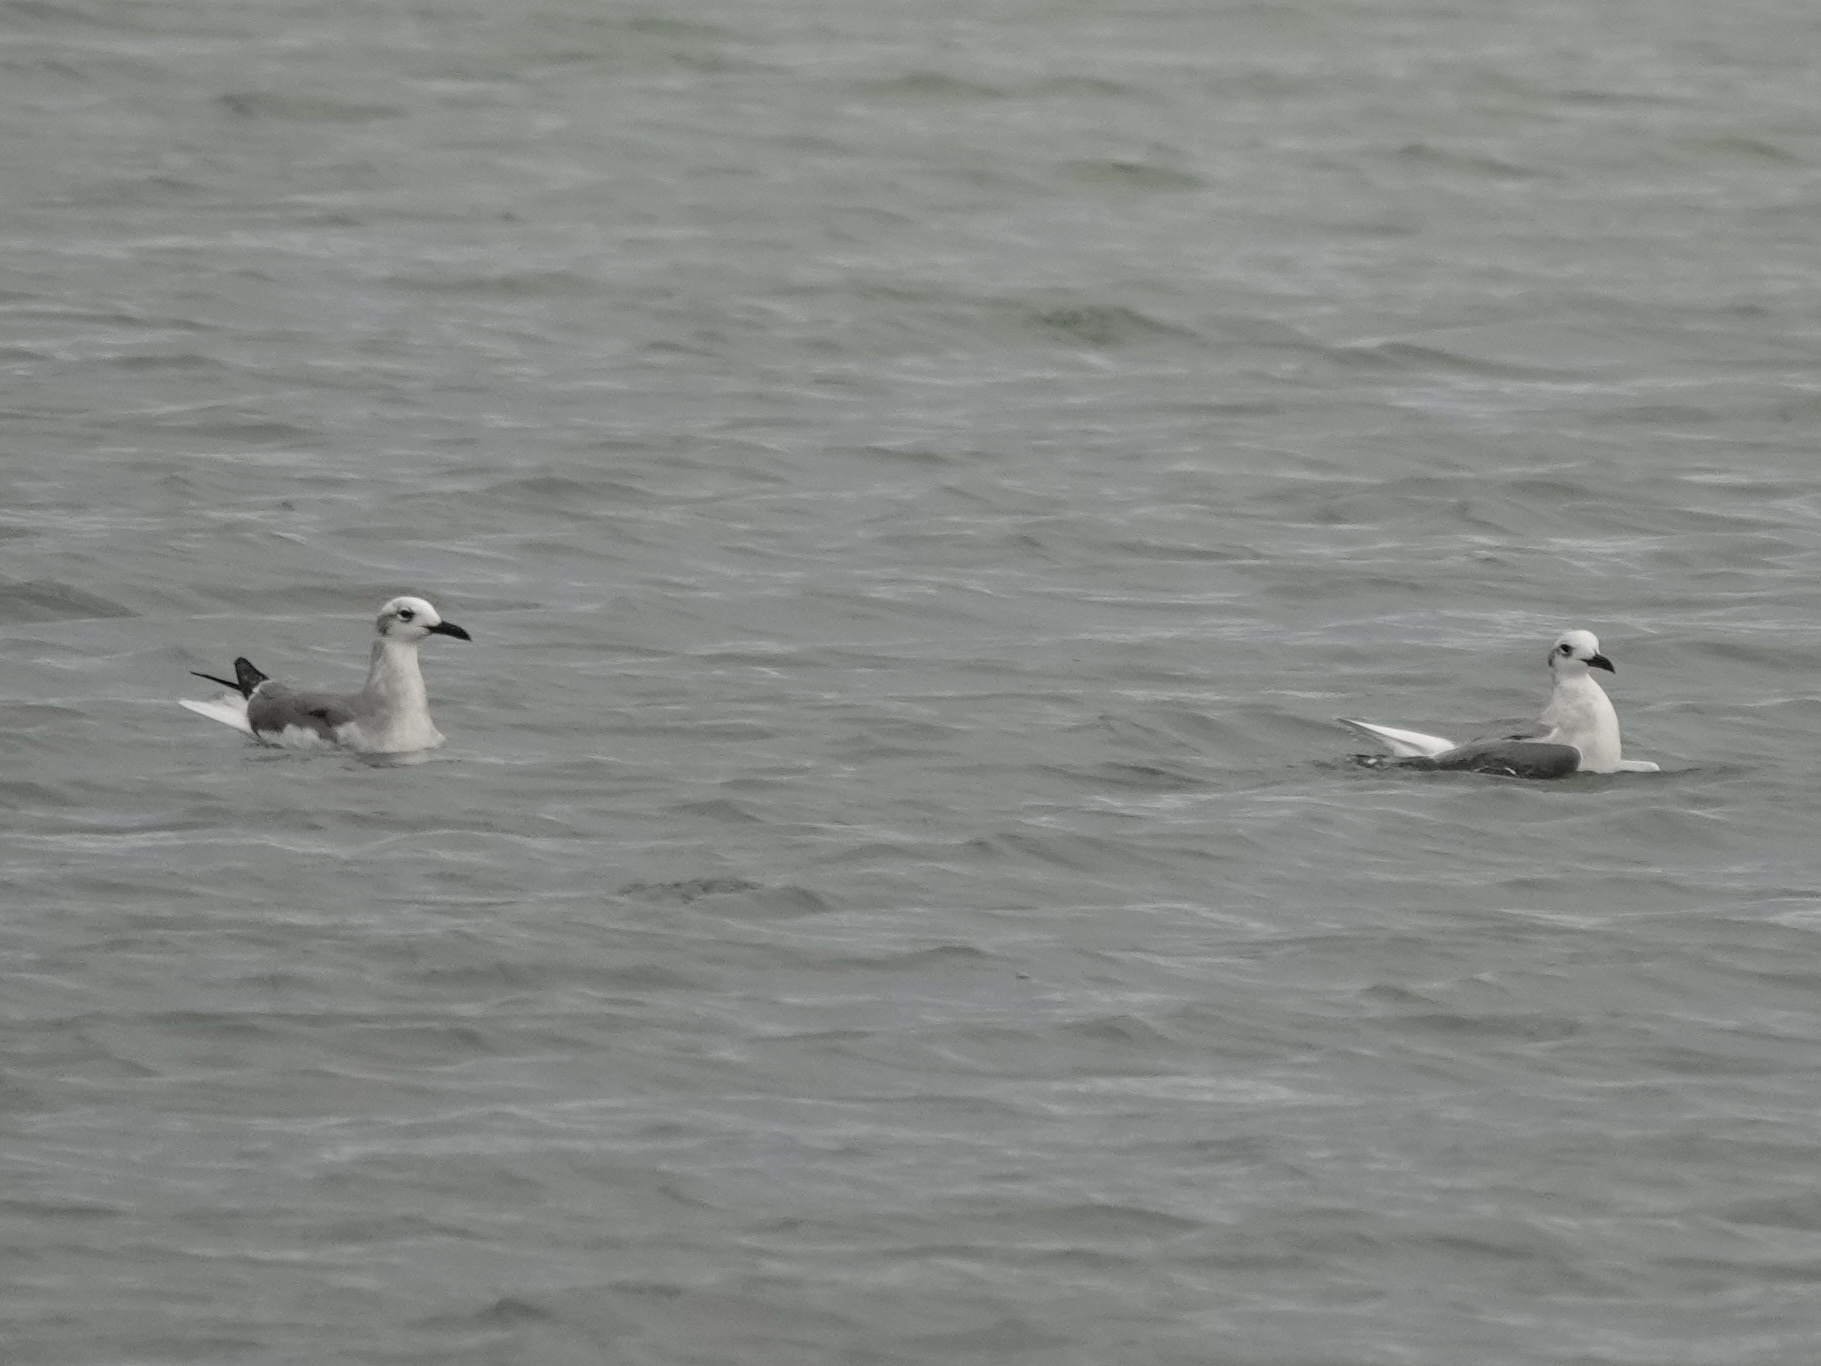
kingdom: Animalia
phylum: Chordata
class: Aves
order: Charadriiformes
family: Laridae
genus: Leucophaeus
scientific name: Leucophaeus atricilla
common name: Laughing gull
